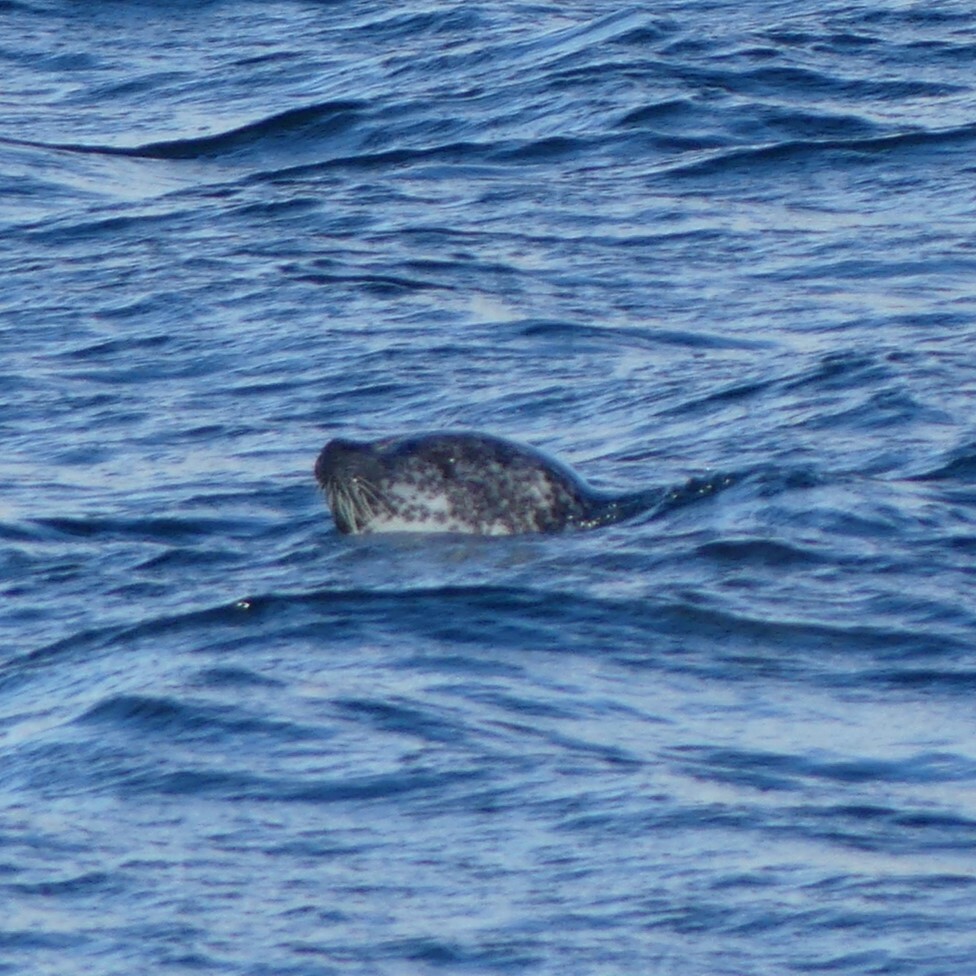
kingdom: Animalia
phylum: Chordata
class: Mammalia
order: Carnivora
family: Phocidae
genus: Phoca
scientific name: Phoca vitulina
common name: Harbor seal
